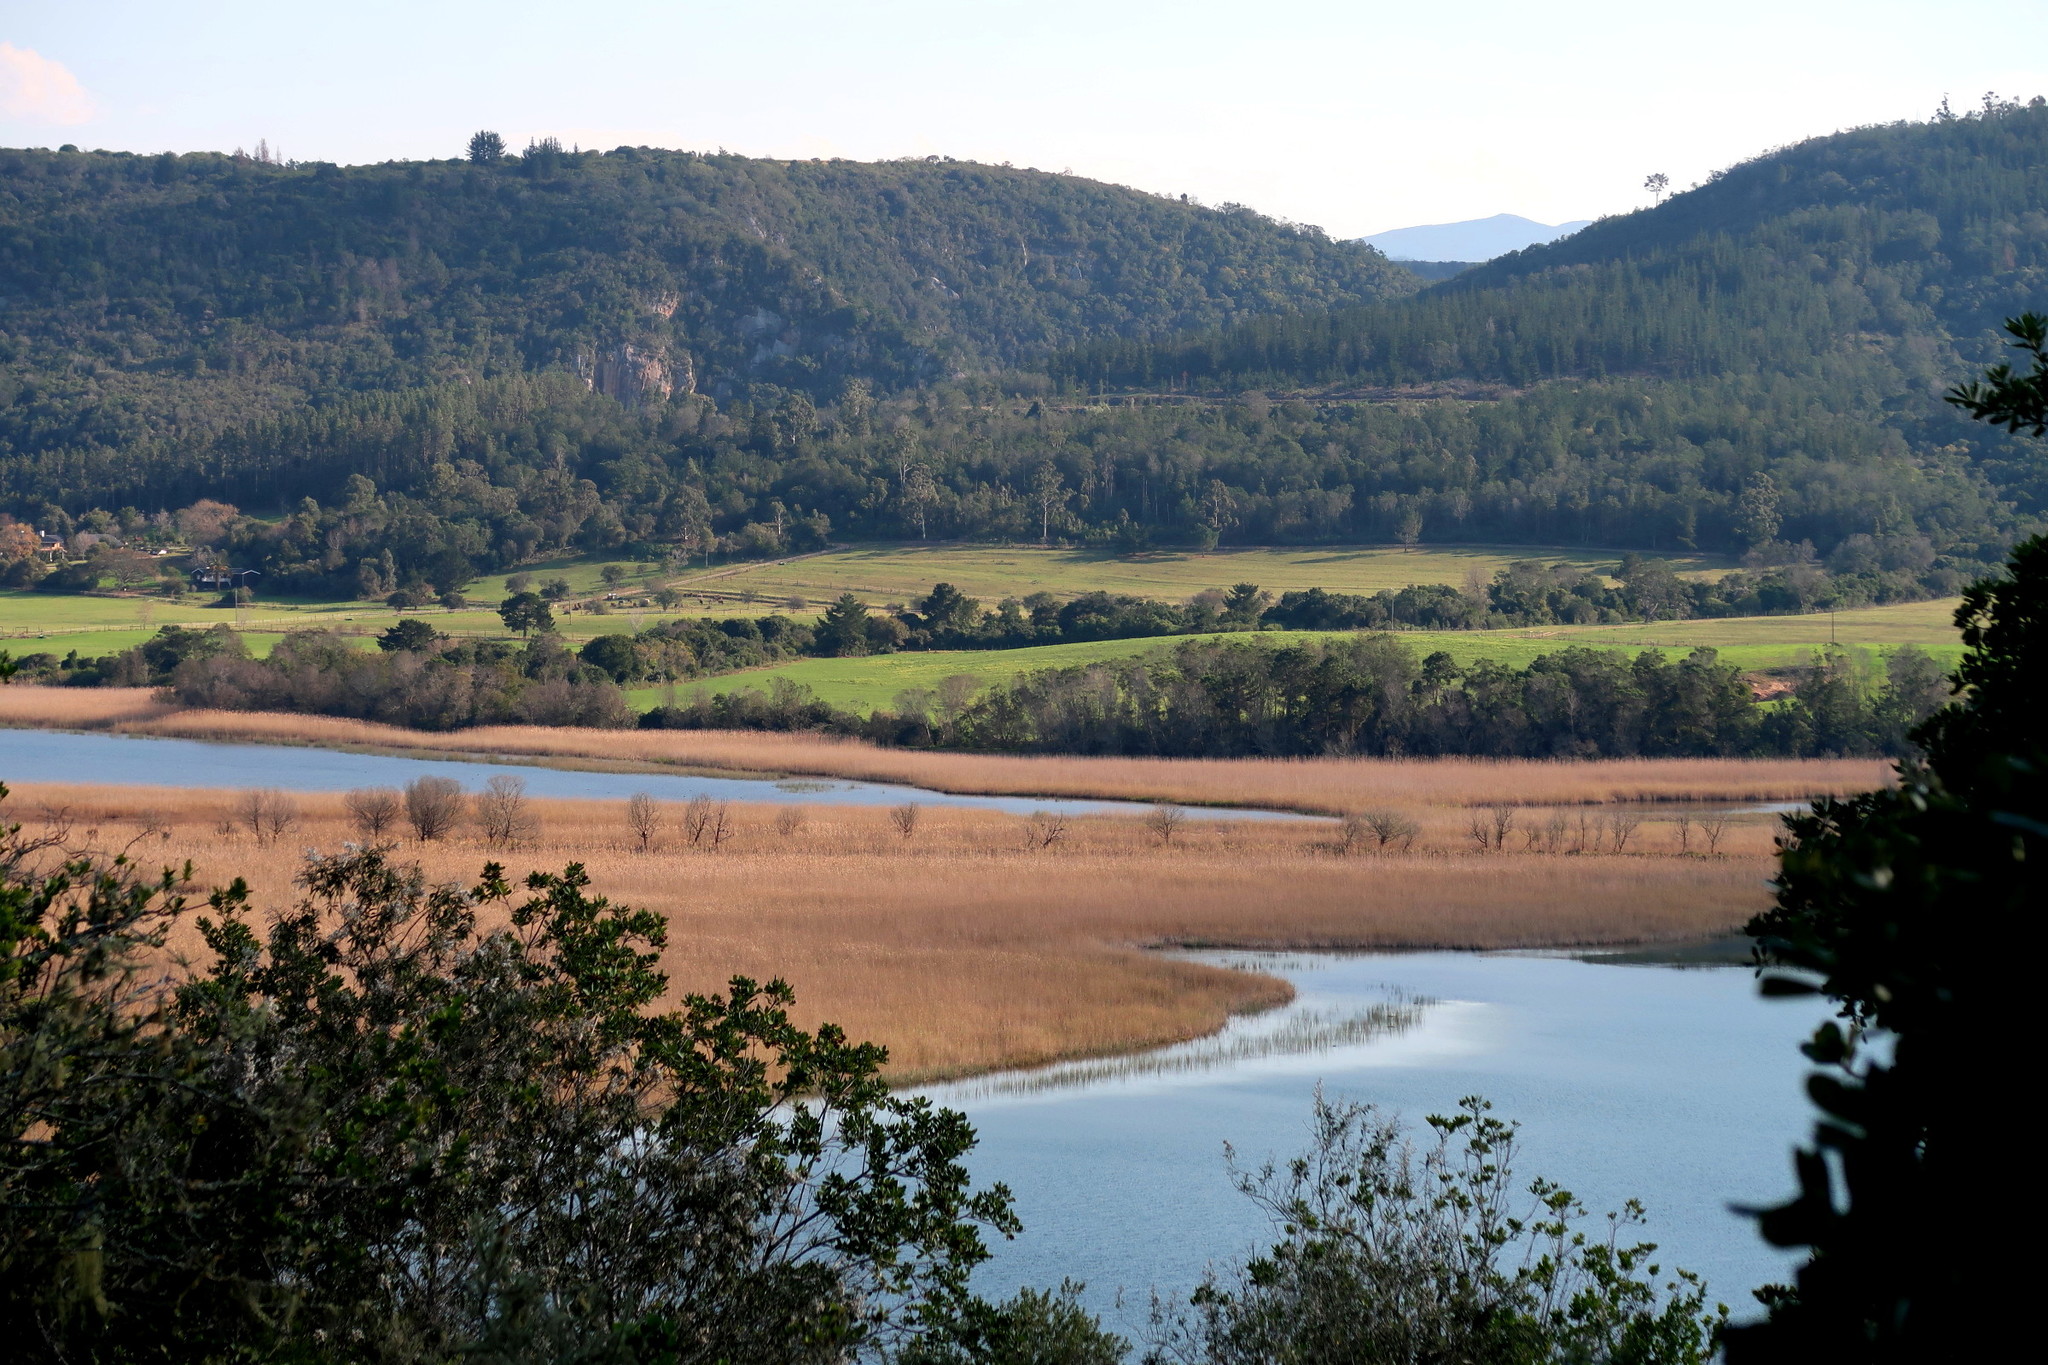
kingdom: Plantae
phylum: Tracheophyta
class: Liliopsida
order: Poales
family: Poaceae
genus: Phragmites
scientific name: Phragmites australis
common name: Common reed
